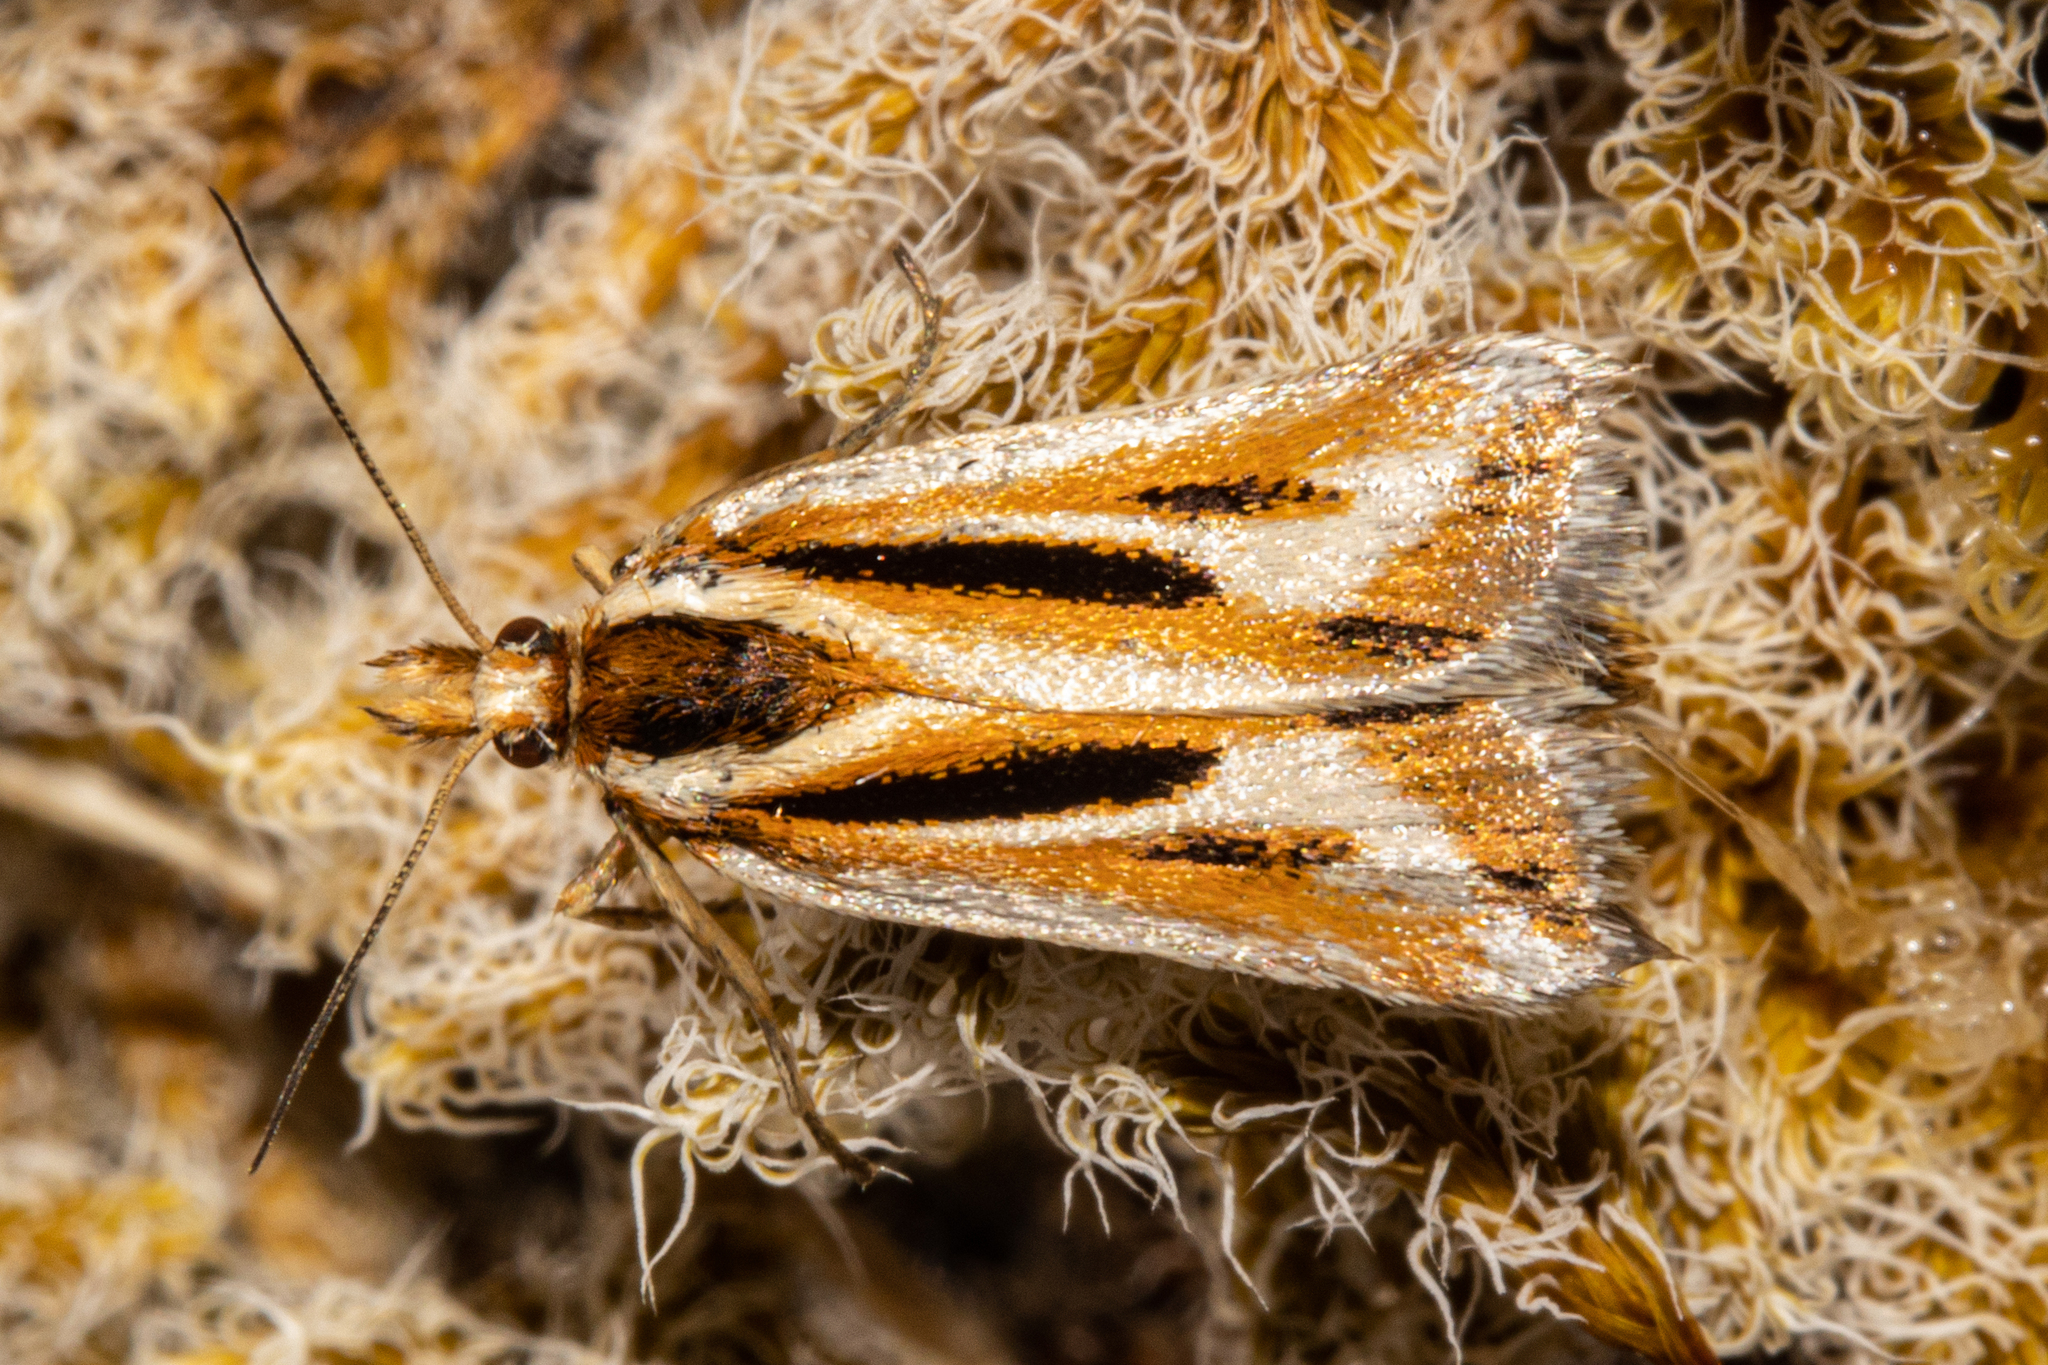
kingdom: Animalia
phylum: Arthropoda
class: Insecta
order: Lepidoptera
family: Crambidae
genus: Scoparia
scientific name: Scoparia subitus
